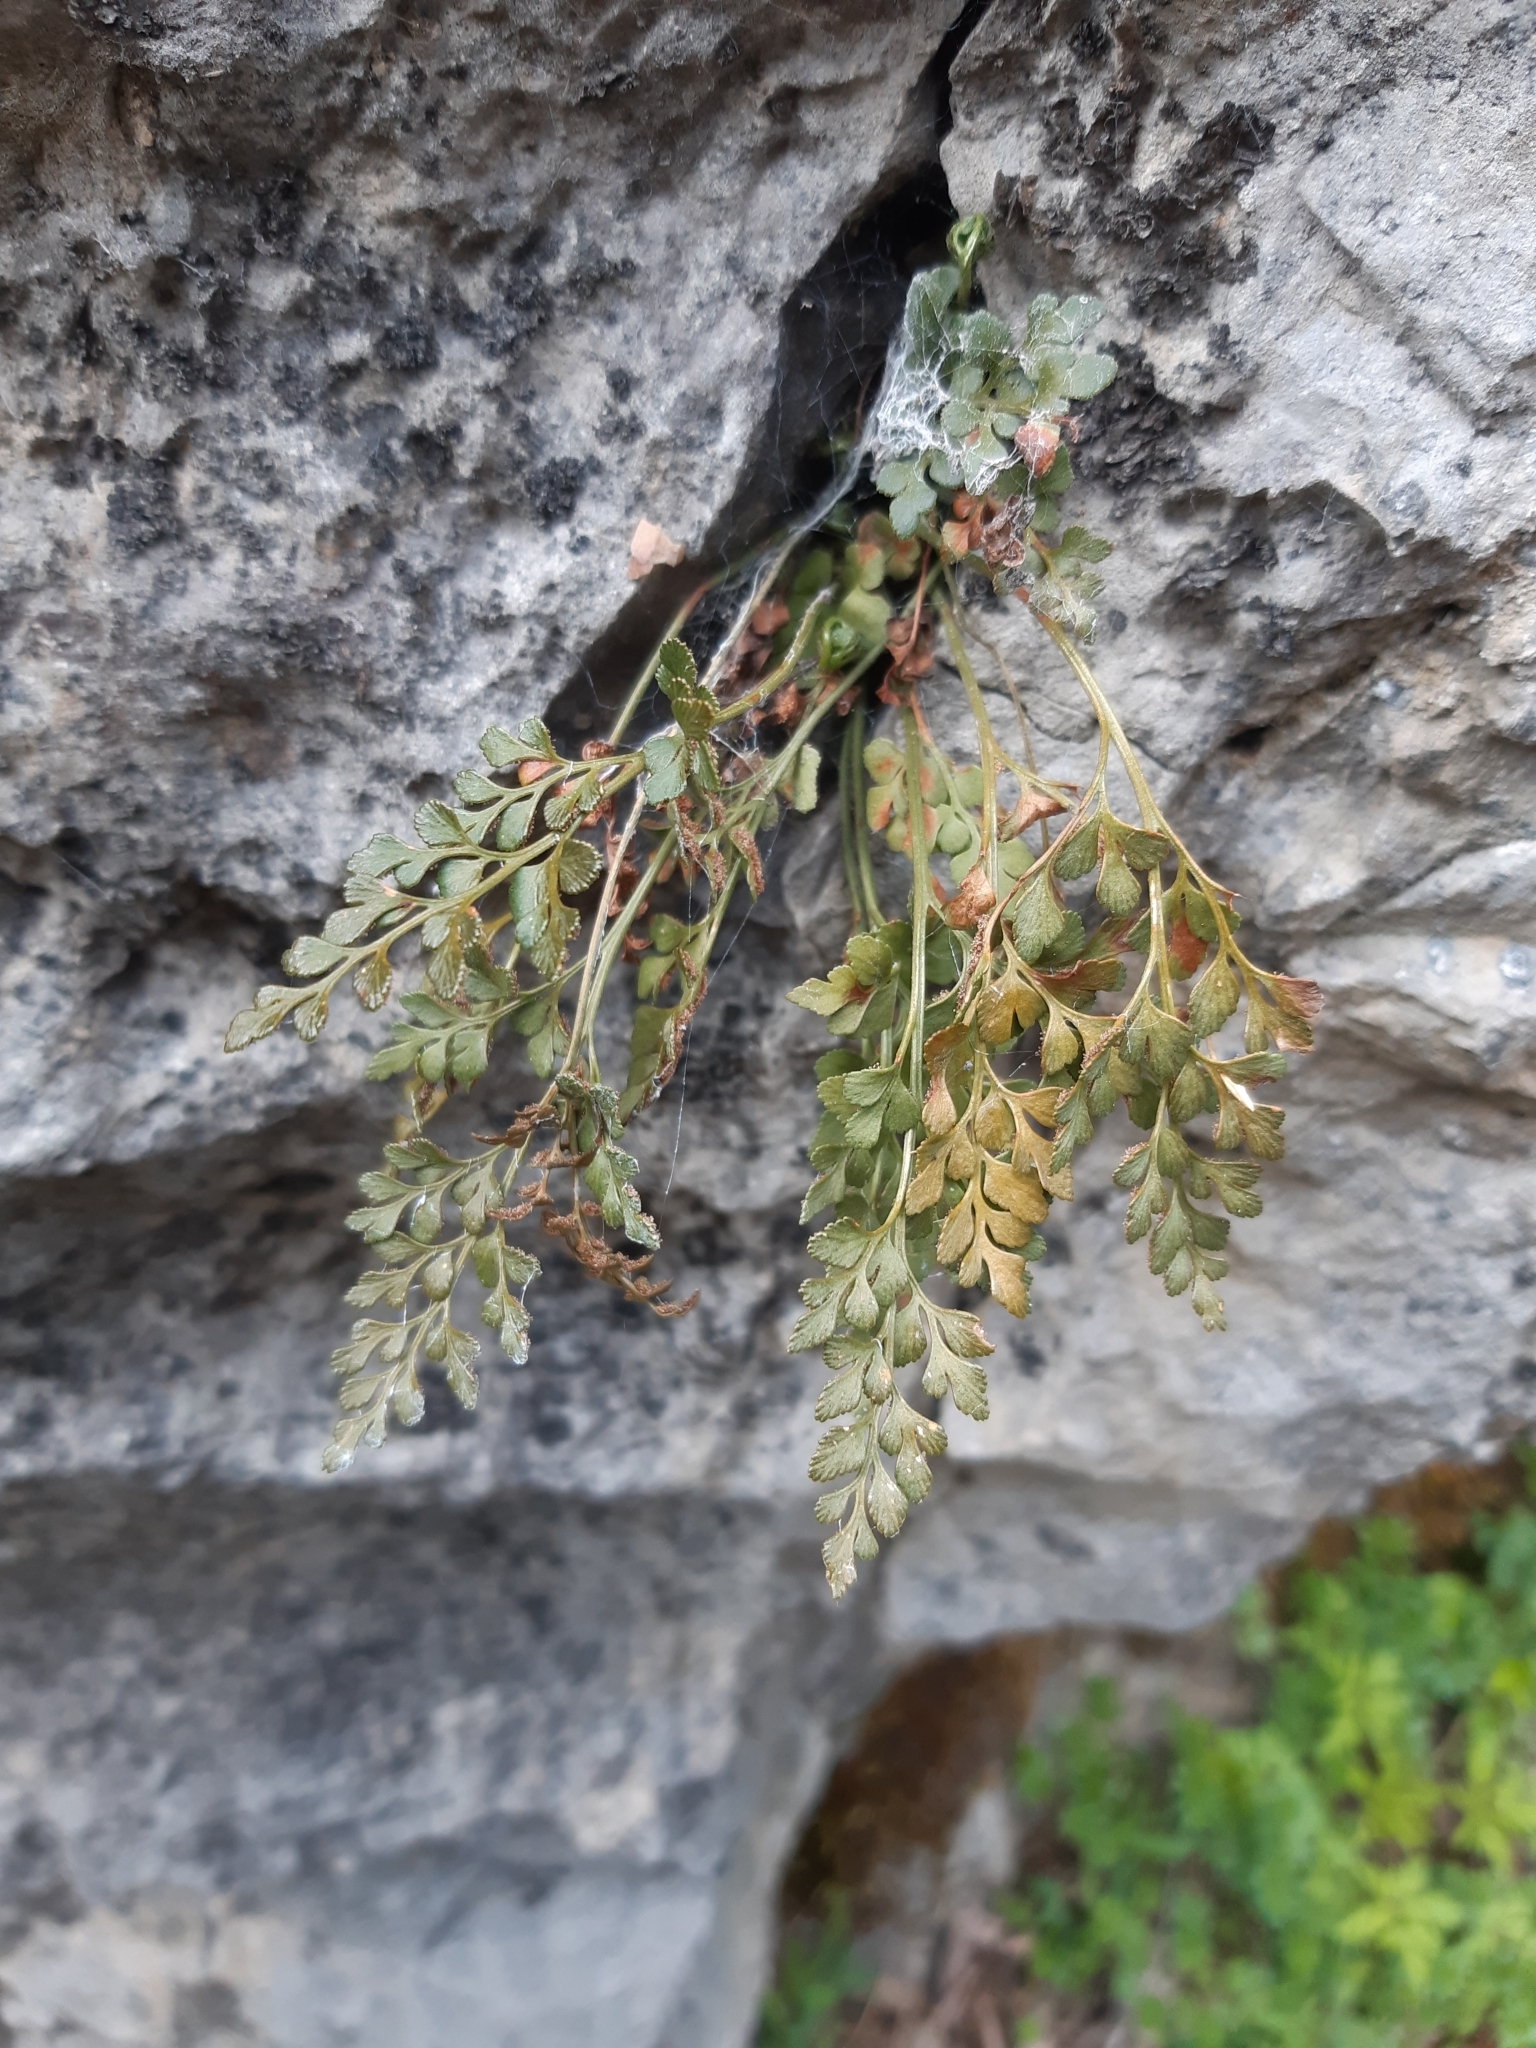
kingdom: Plantae
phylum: Tracheophyta
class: Polypodiopsida
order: Polypodiales
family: Aspleniaceae
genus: Asplenium
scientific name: Asplenium ruta-muraria
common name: Wall-rue
